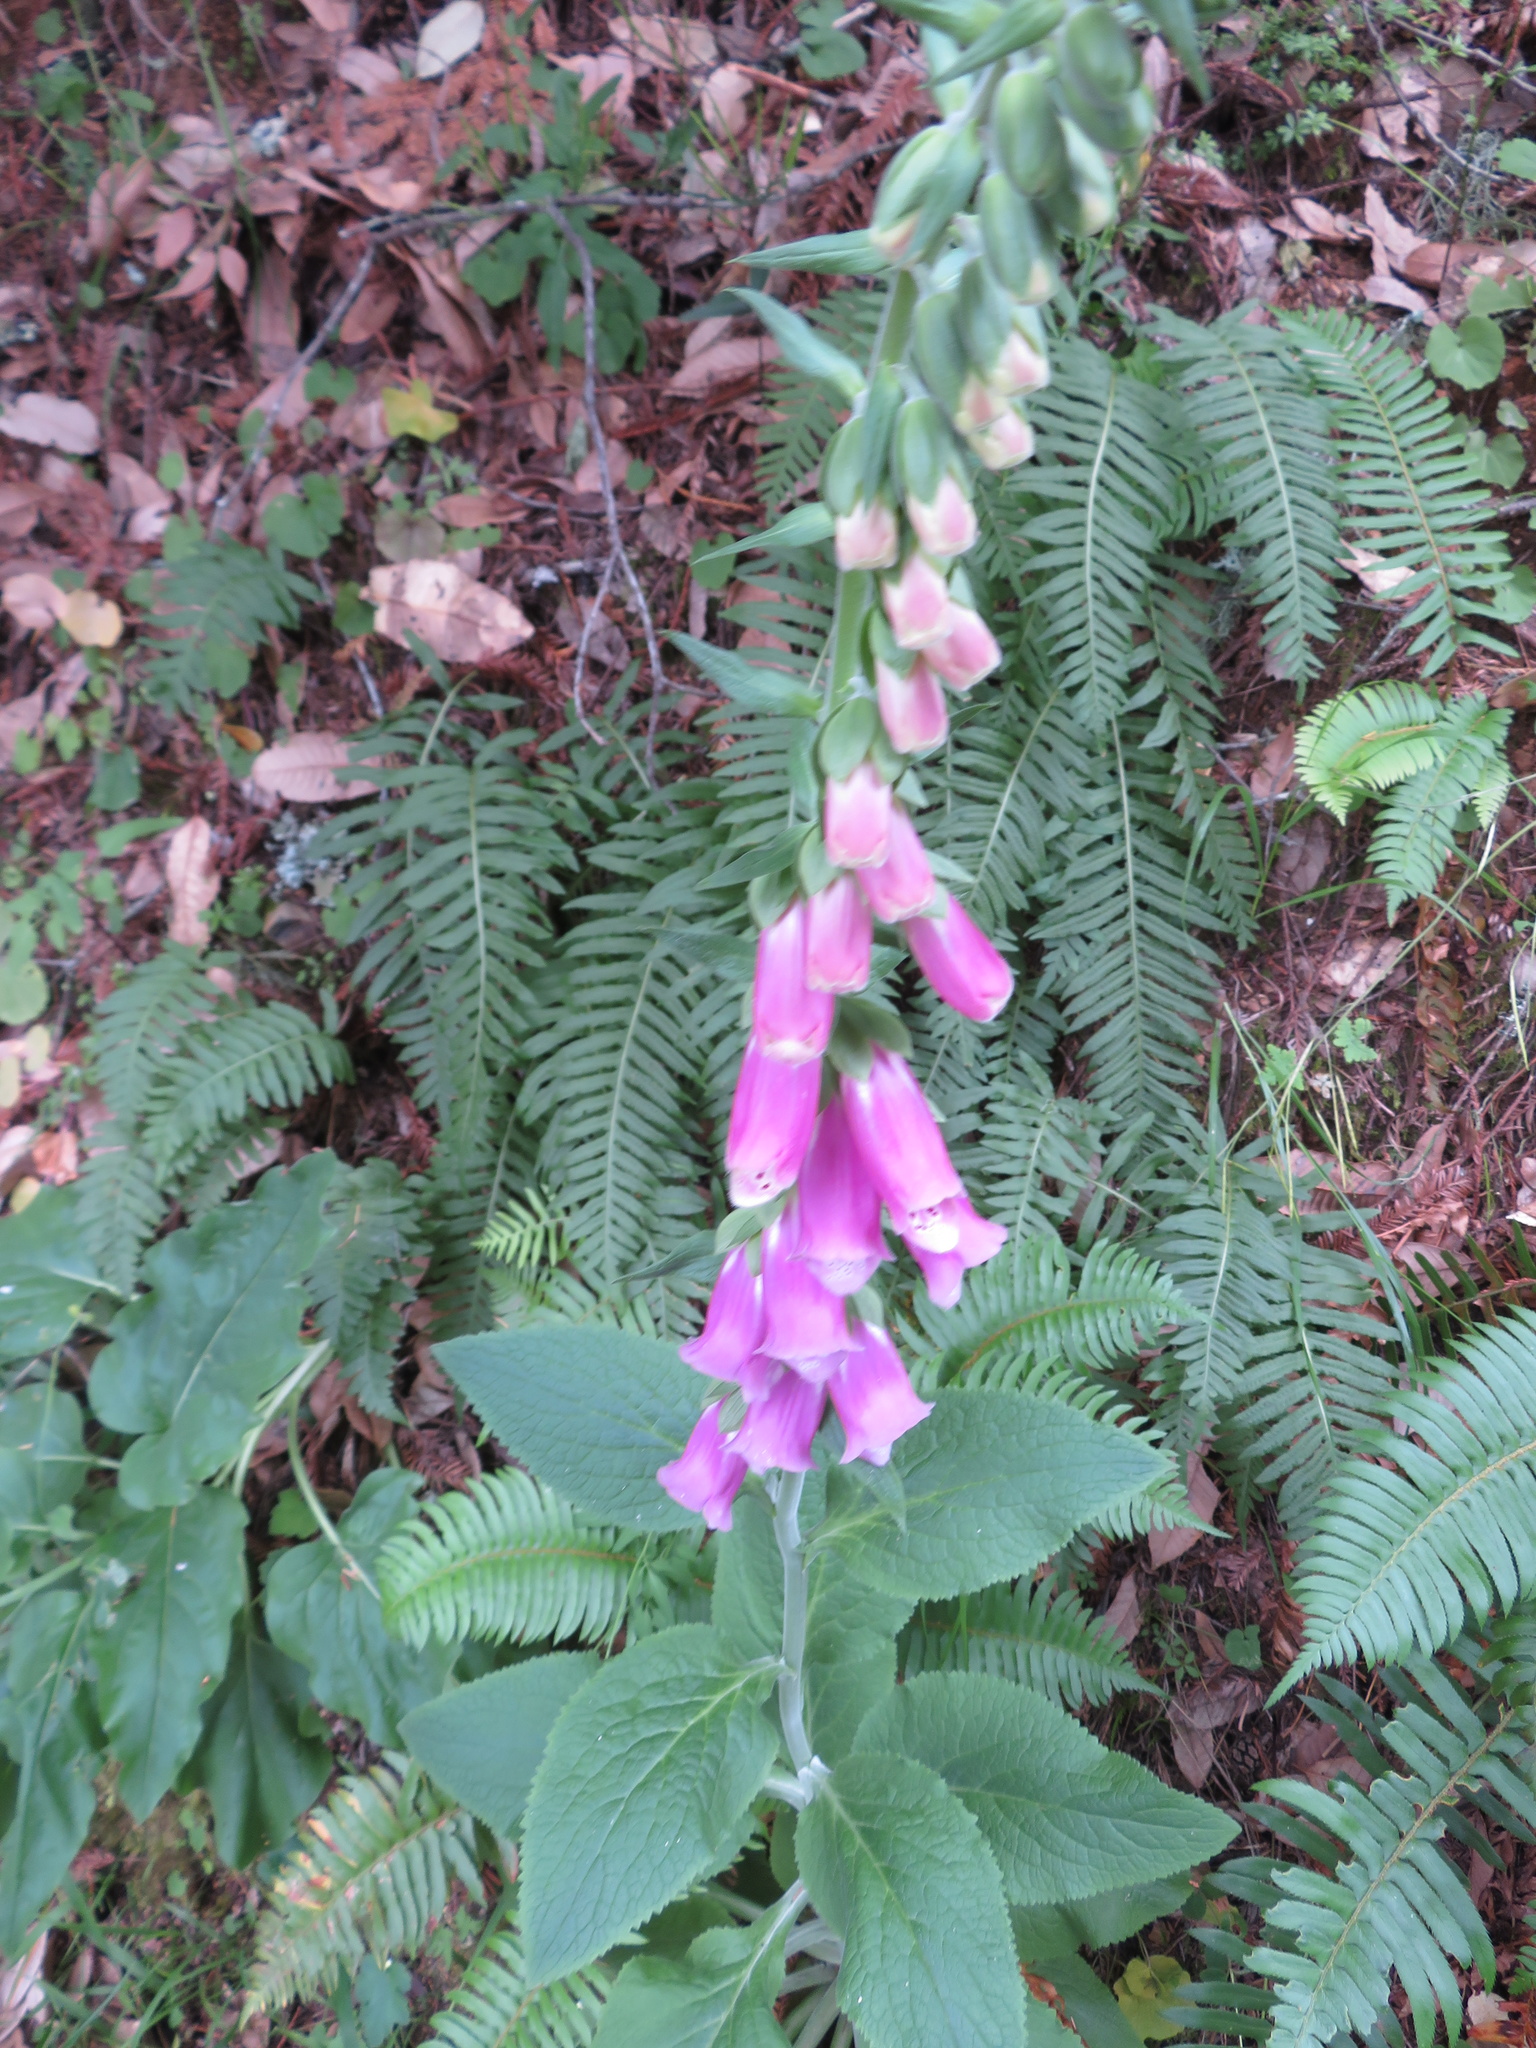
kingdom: Plantae
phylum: Tracheophyta
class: Magnoliopsida
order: Lamiales
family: Plantaginaceae
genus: Digitalis
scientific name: Digitalis purpurea
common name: Foxglove
